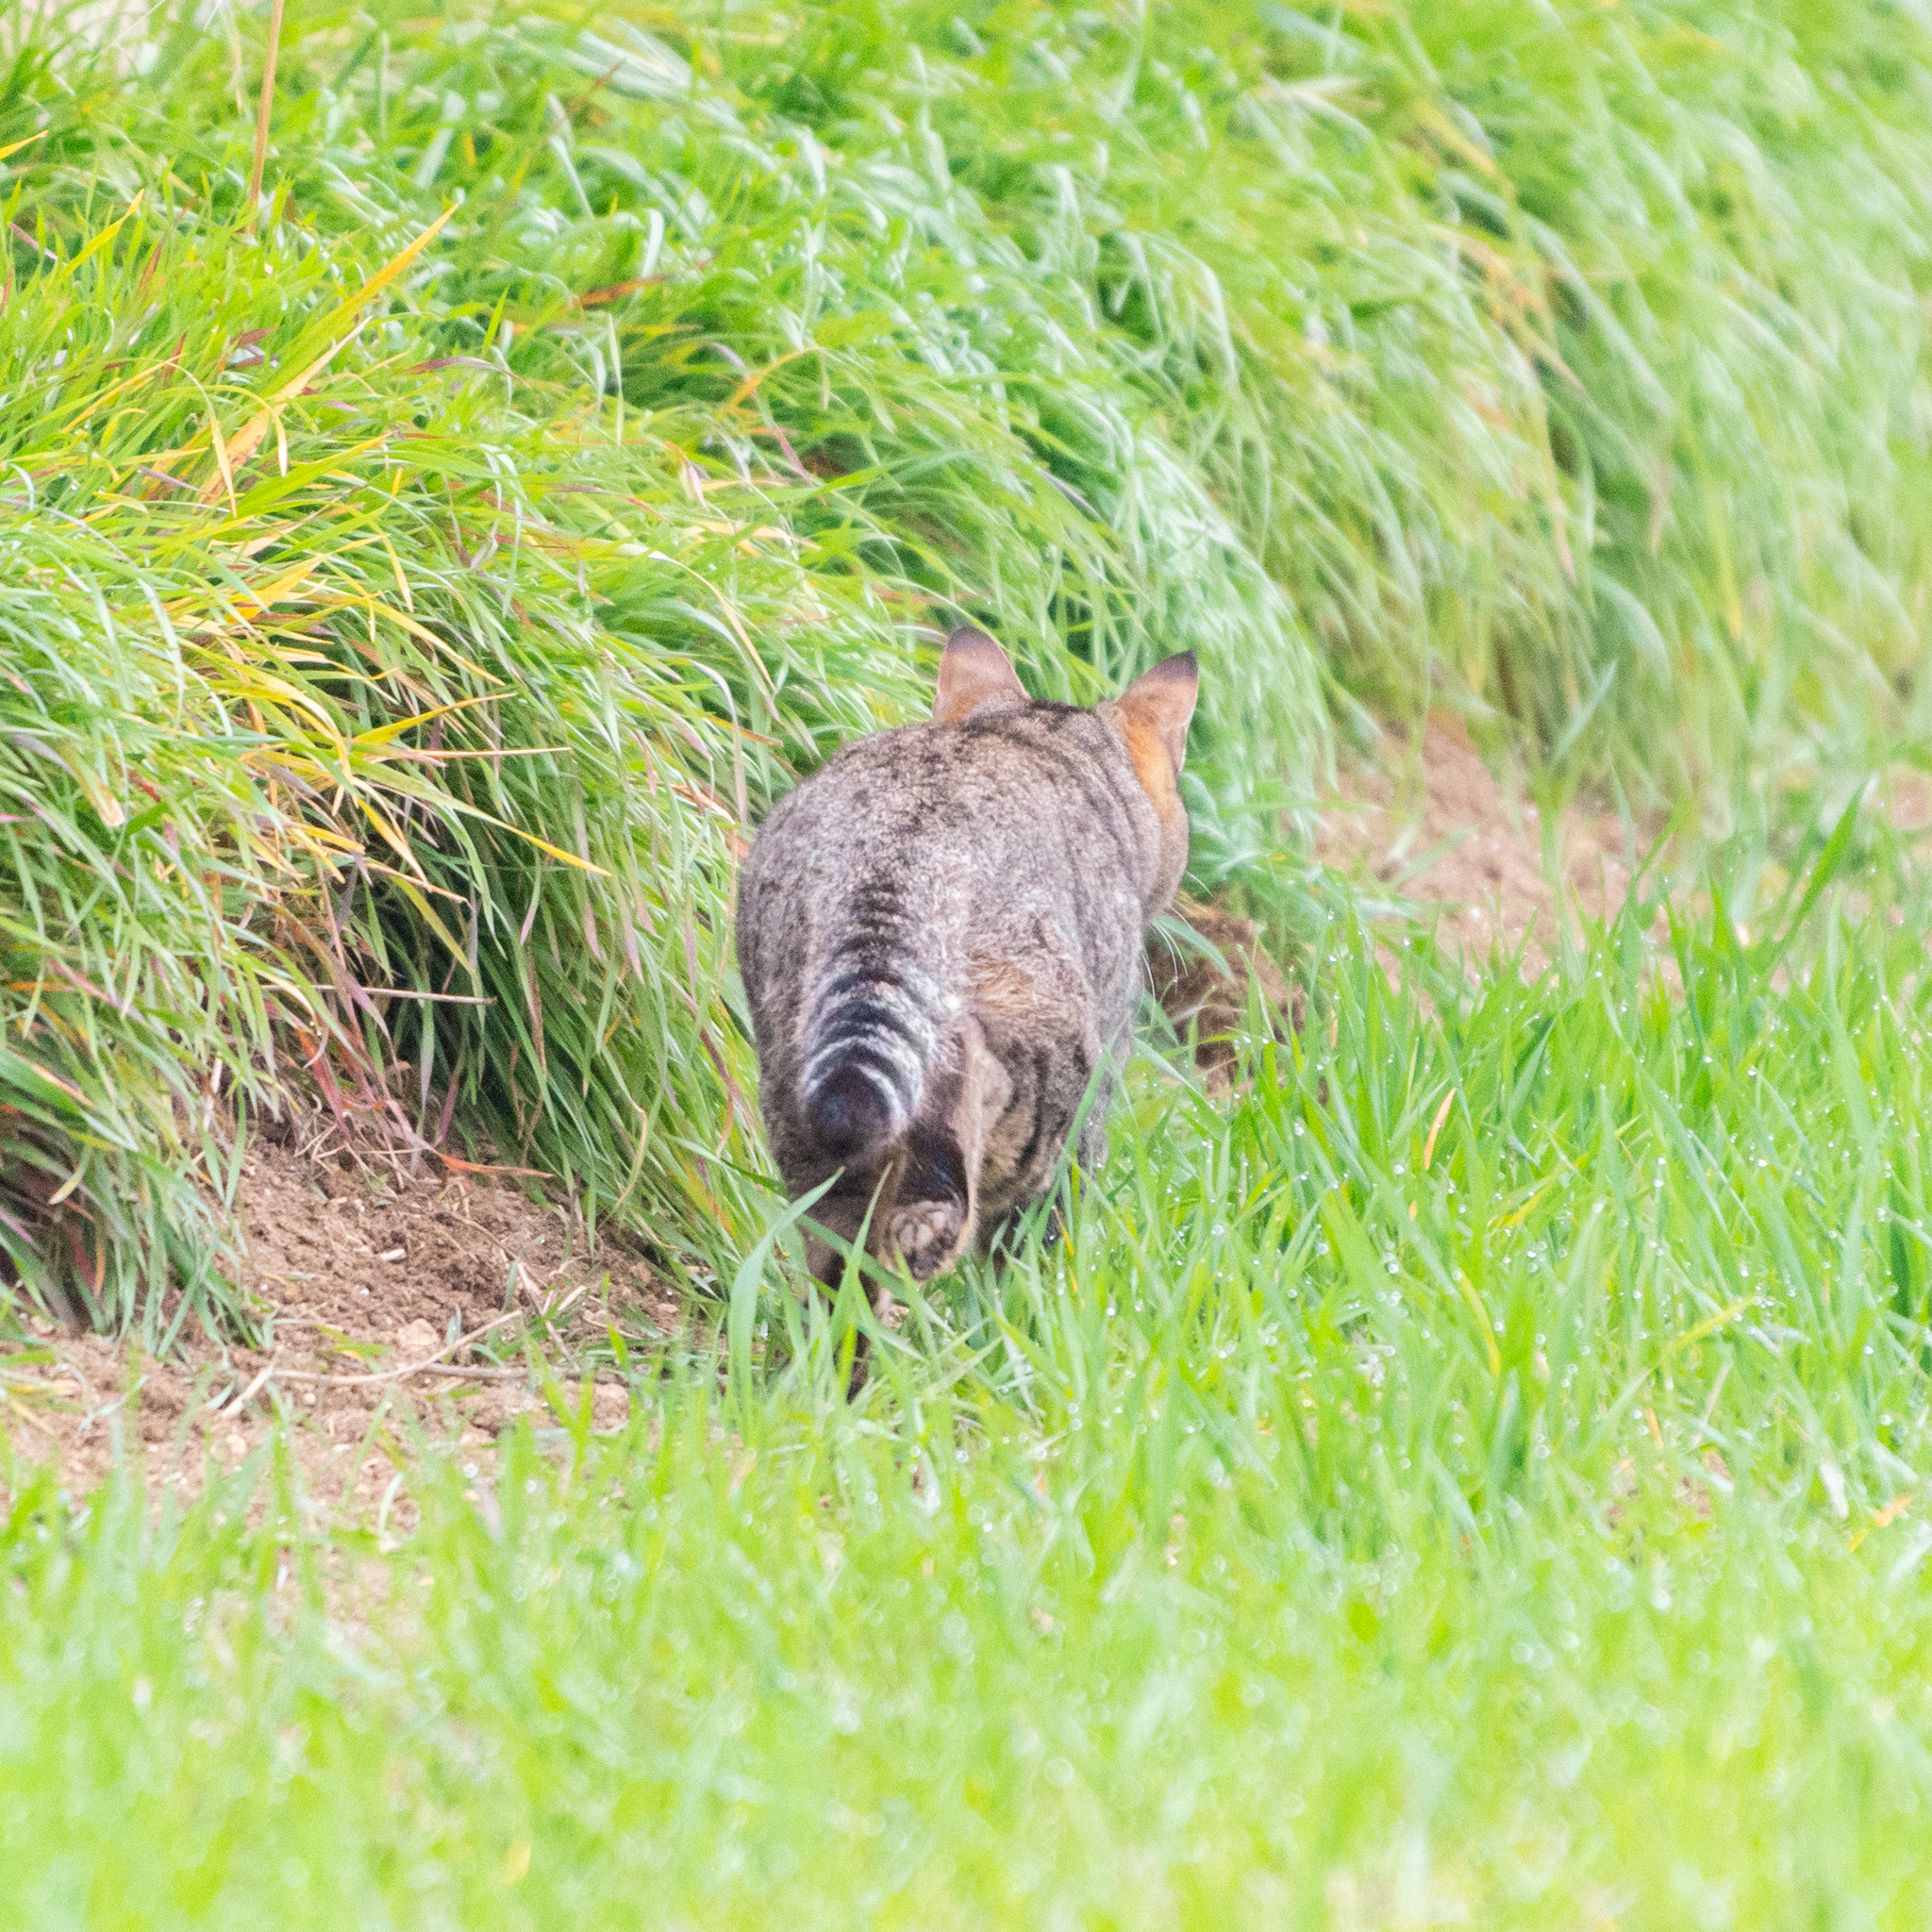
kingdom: Animalia
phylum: Chordata
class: Mammalia
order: Carnivora
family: Felidae
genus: Felis
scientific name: Felis catus
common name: Domestic cat
